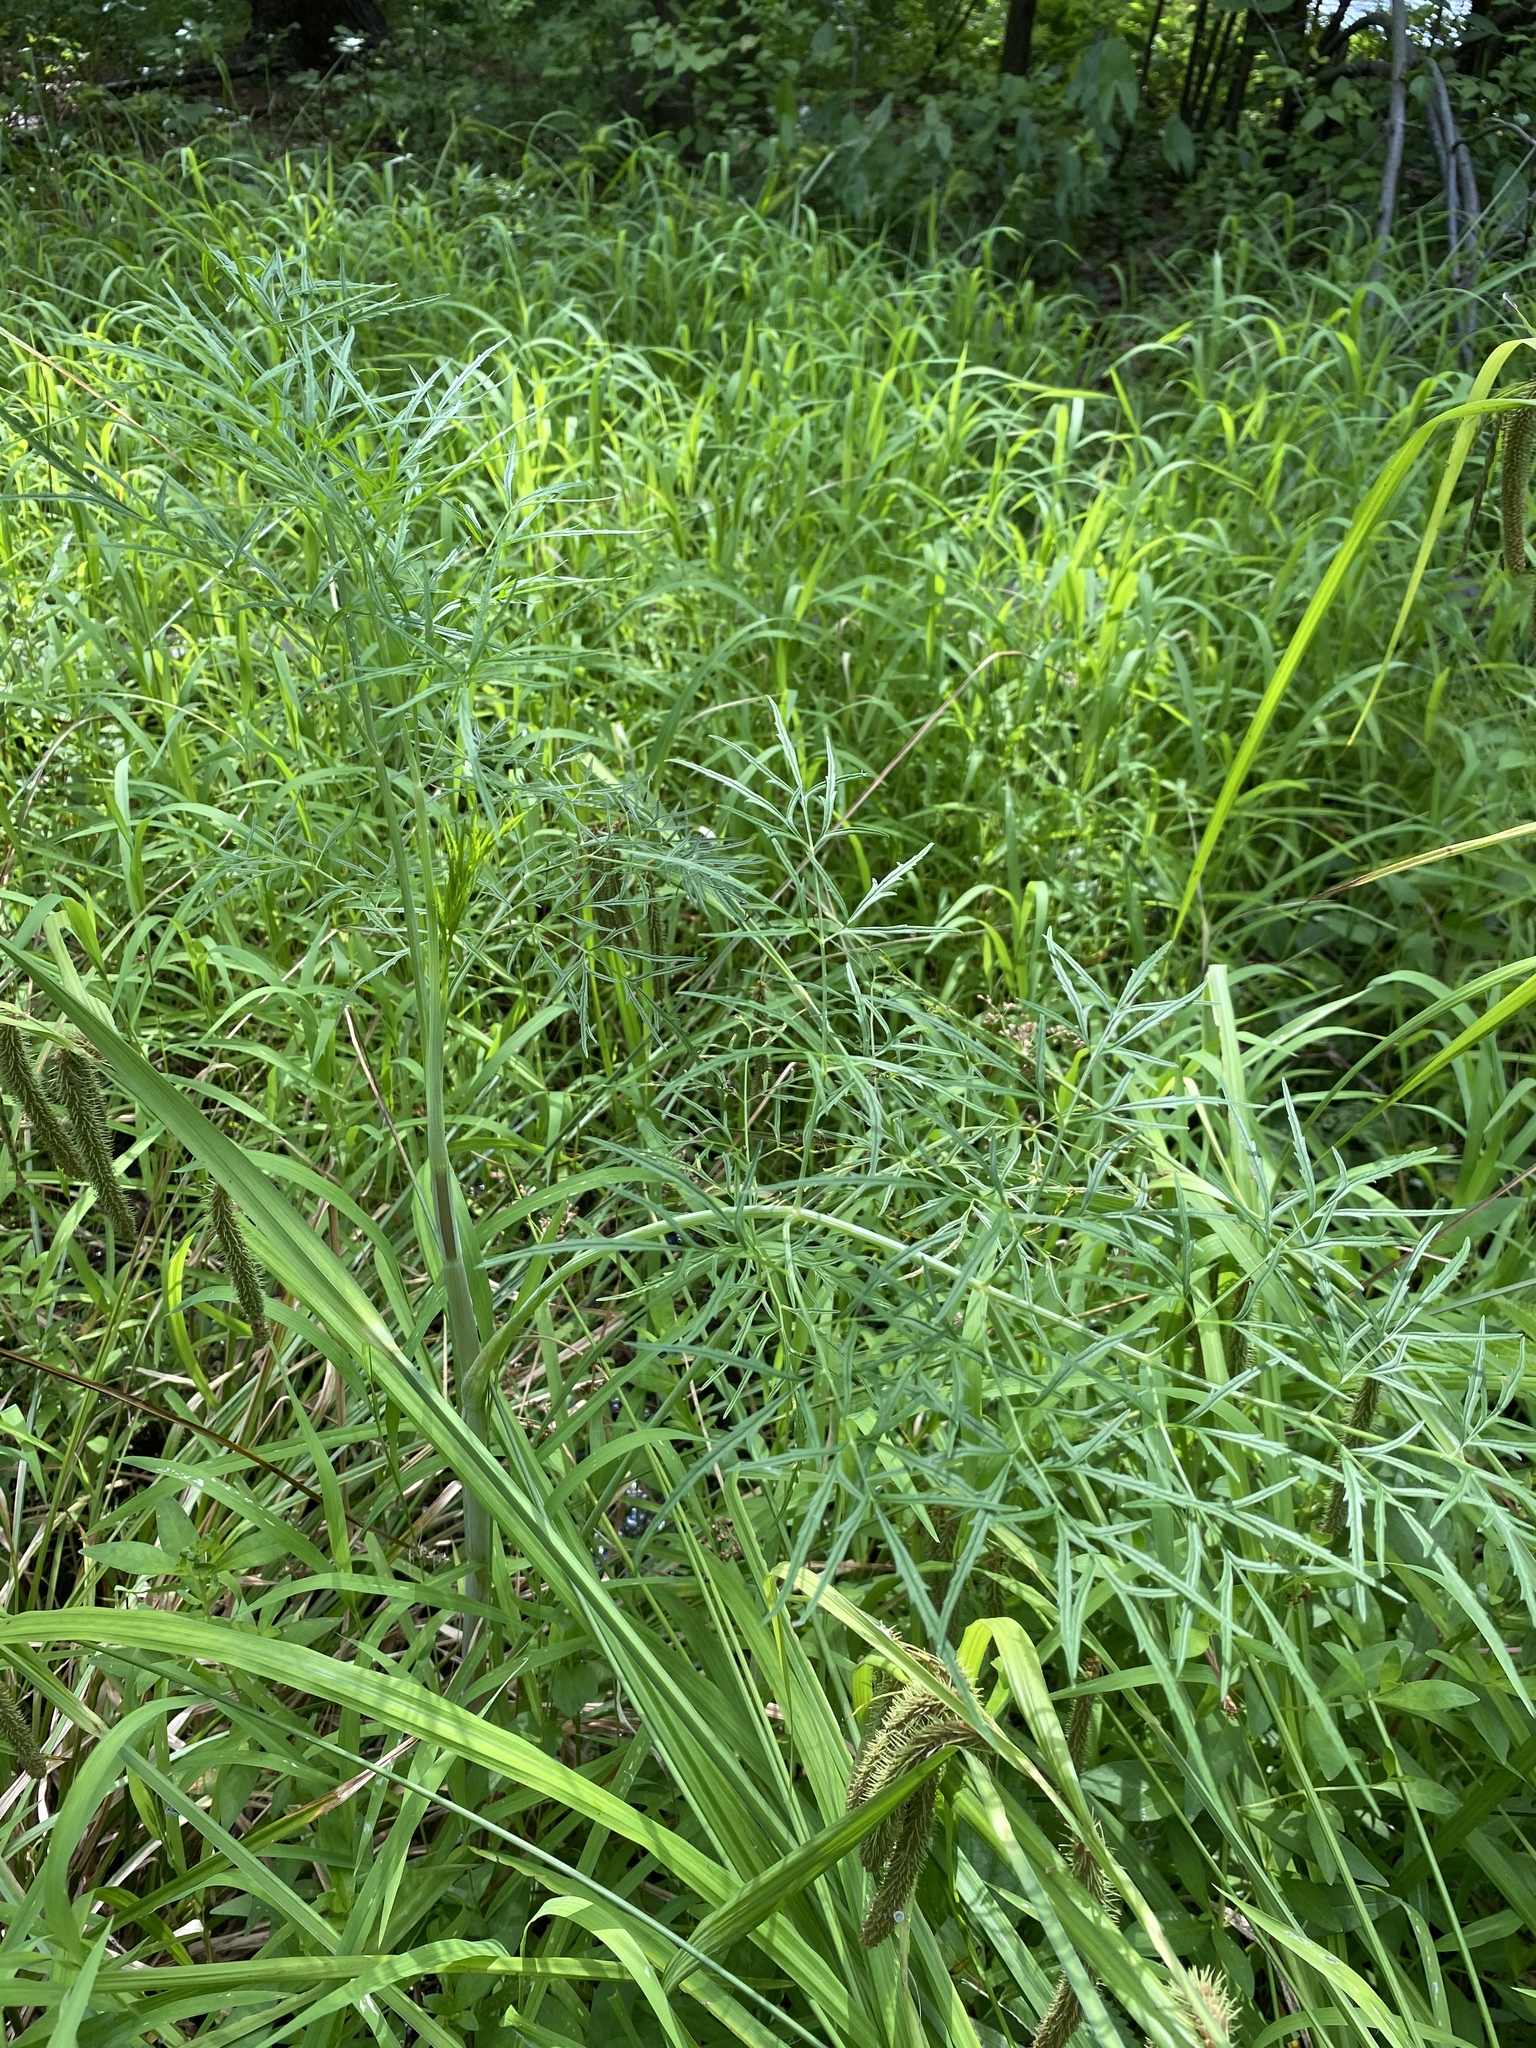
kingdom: Plantae
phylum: Tracheophyta
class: Magnoliopsida
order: Apiales
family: Apiaceae
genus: Cicuta
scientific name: Cicuta bulbifera
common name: Bulb-bearing water-hemlock
